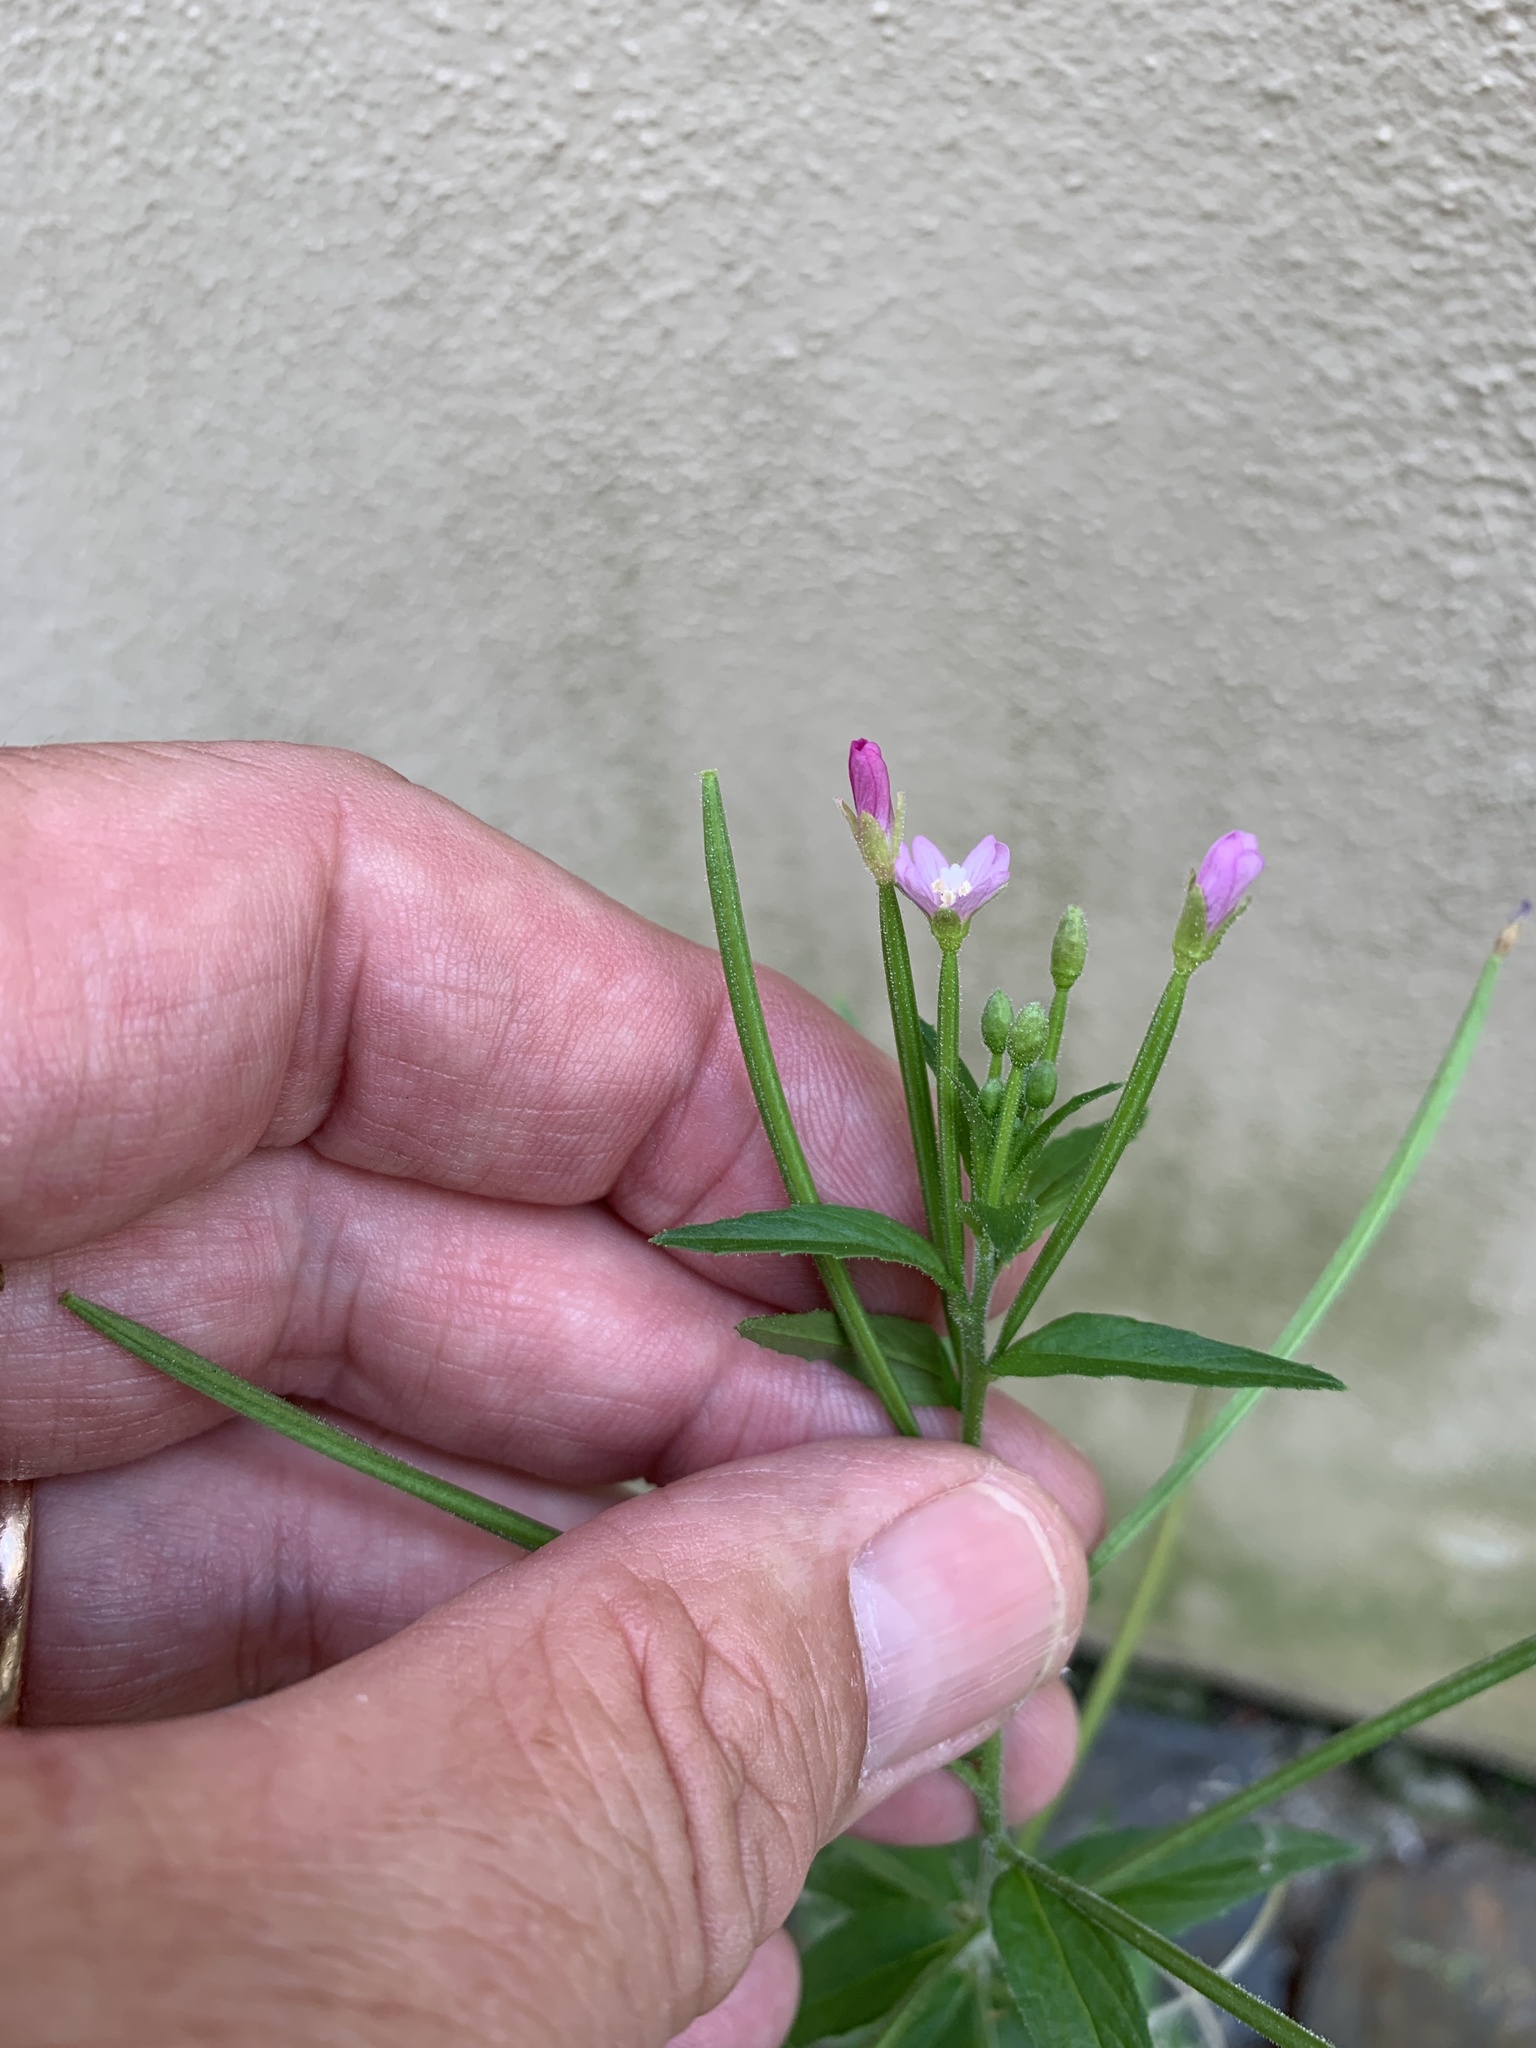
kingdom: Plantae
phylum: Tracheophyta
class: Magnoliopsida
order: Myrtales
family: Onagraceae
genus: Epilobium
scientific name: Epilobium ciliatum
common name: American willowherb
